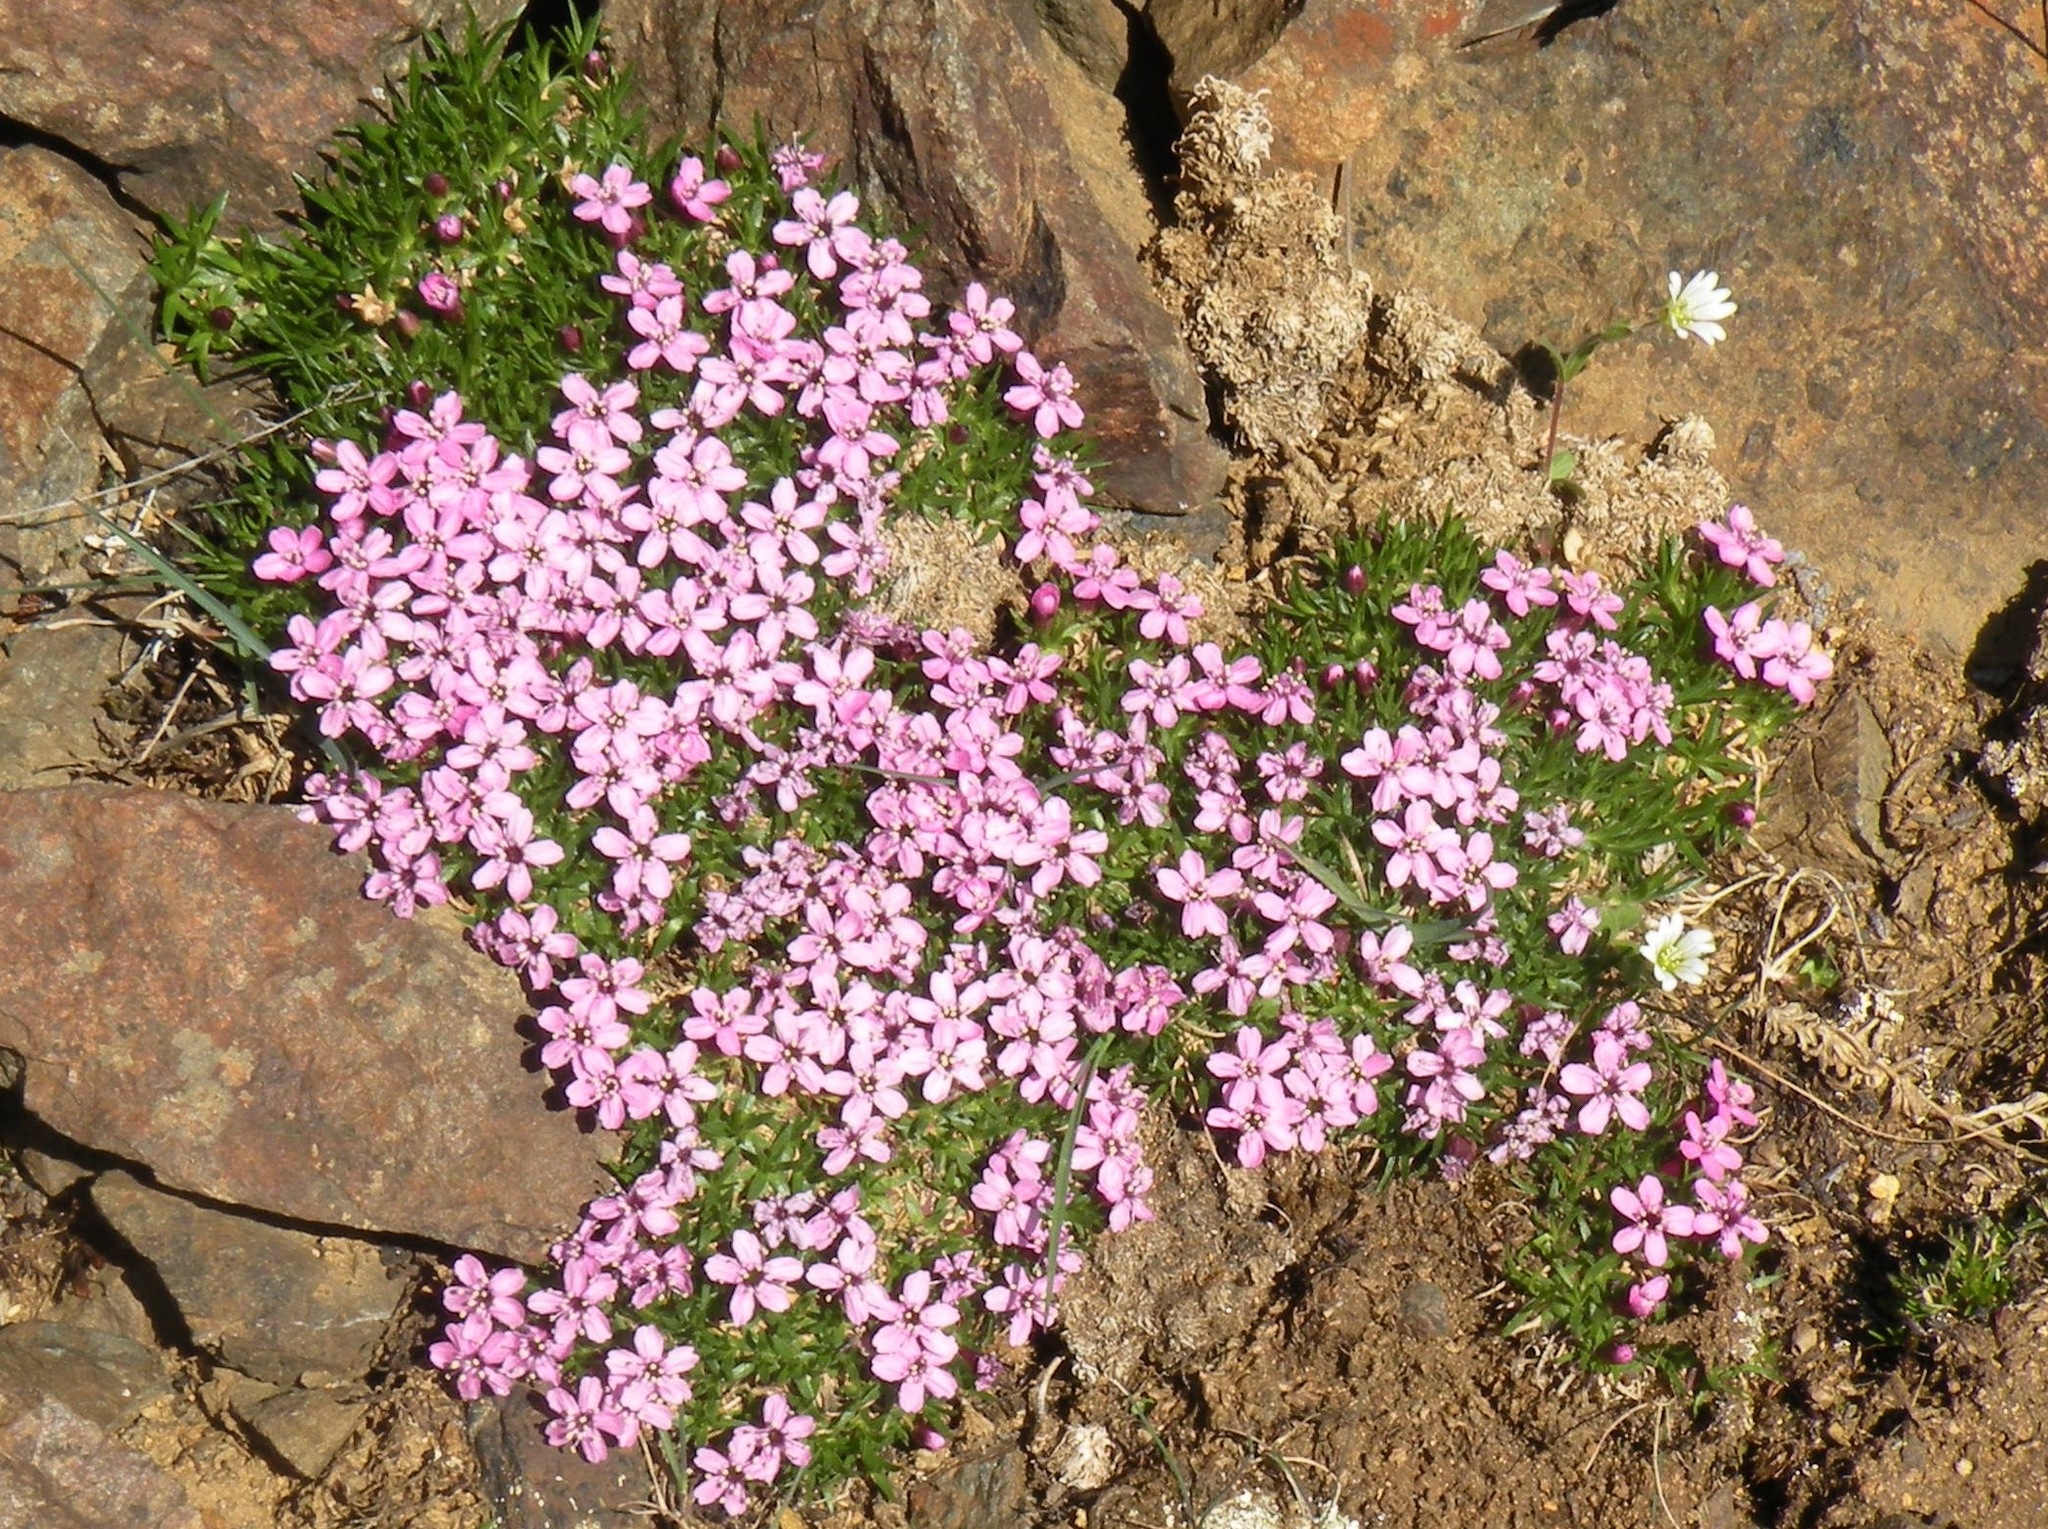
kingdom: Plantae
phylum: Tracheophyta
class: Magnoliopsida
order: Caryophyllales
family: Caryophyllaceae
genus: Silene
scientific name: Silene acaulis
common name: Moss campion
